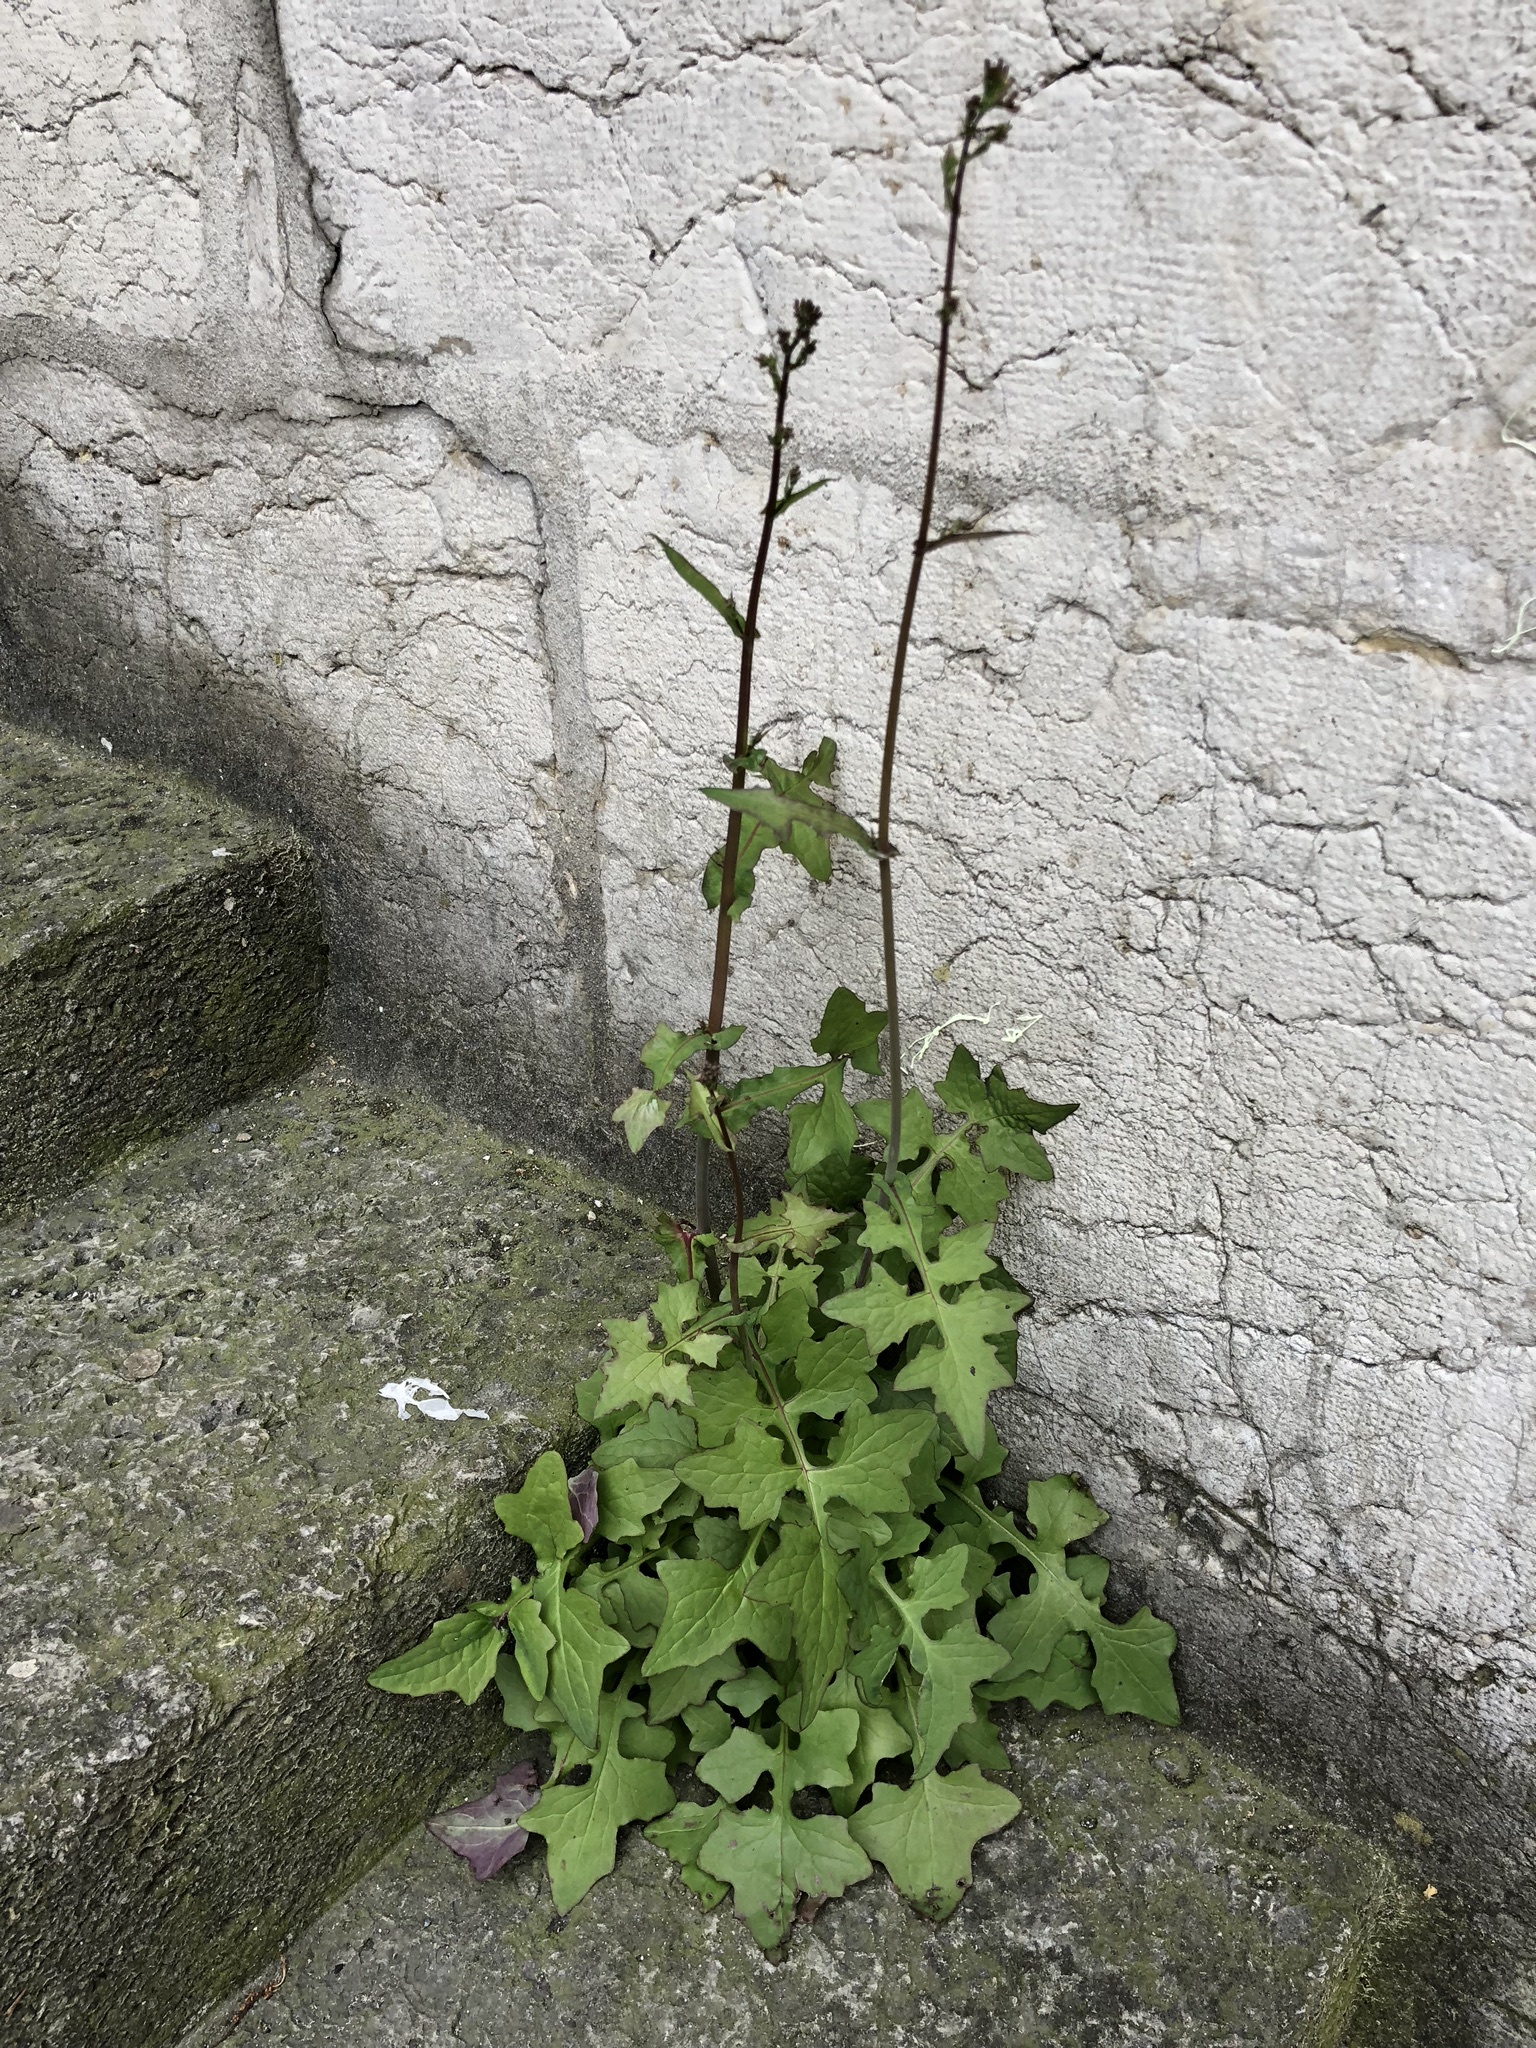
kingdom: Plantae
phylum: Tracheophyta
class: Magnoliopsida
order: Asterales
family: Asteraceae
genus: Mycelis
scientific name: Mycelis muralis
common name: Wall lettuce
